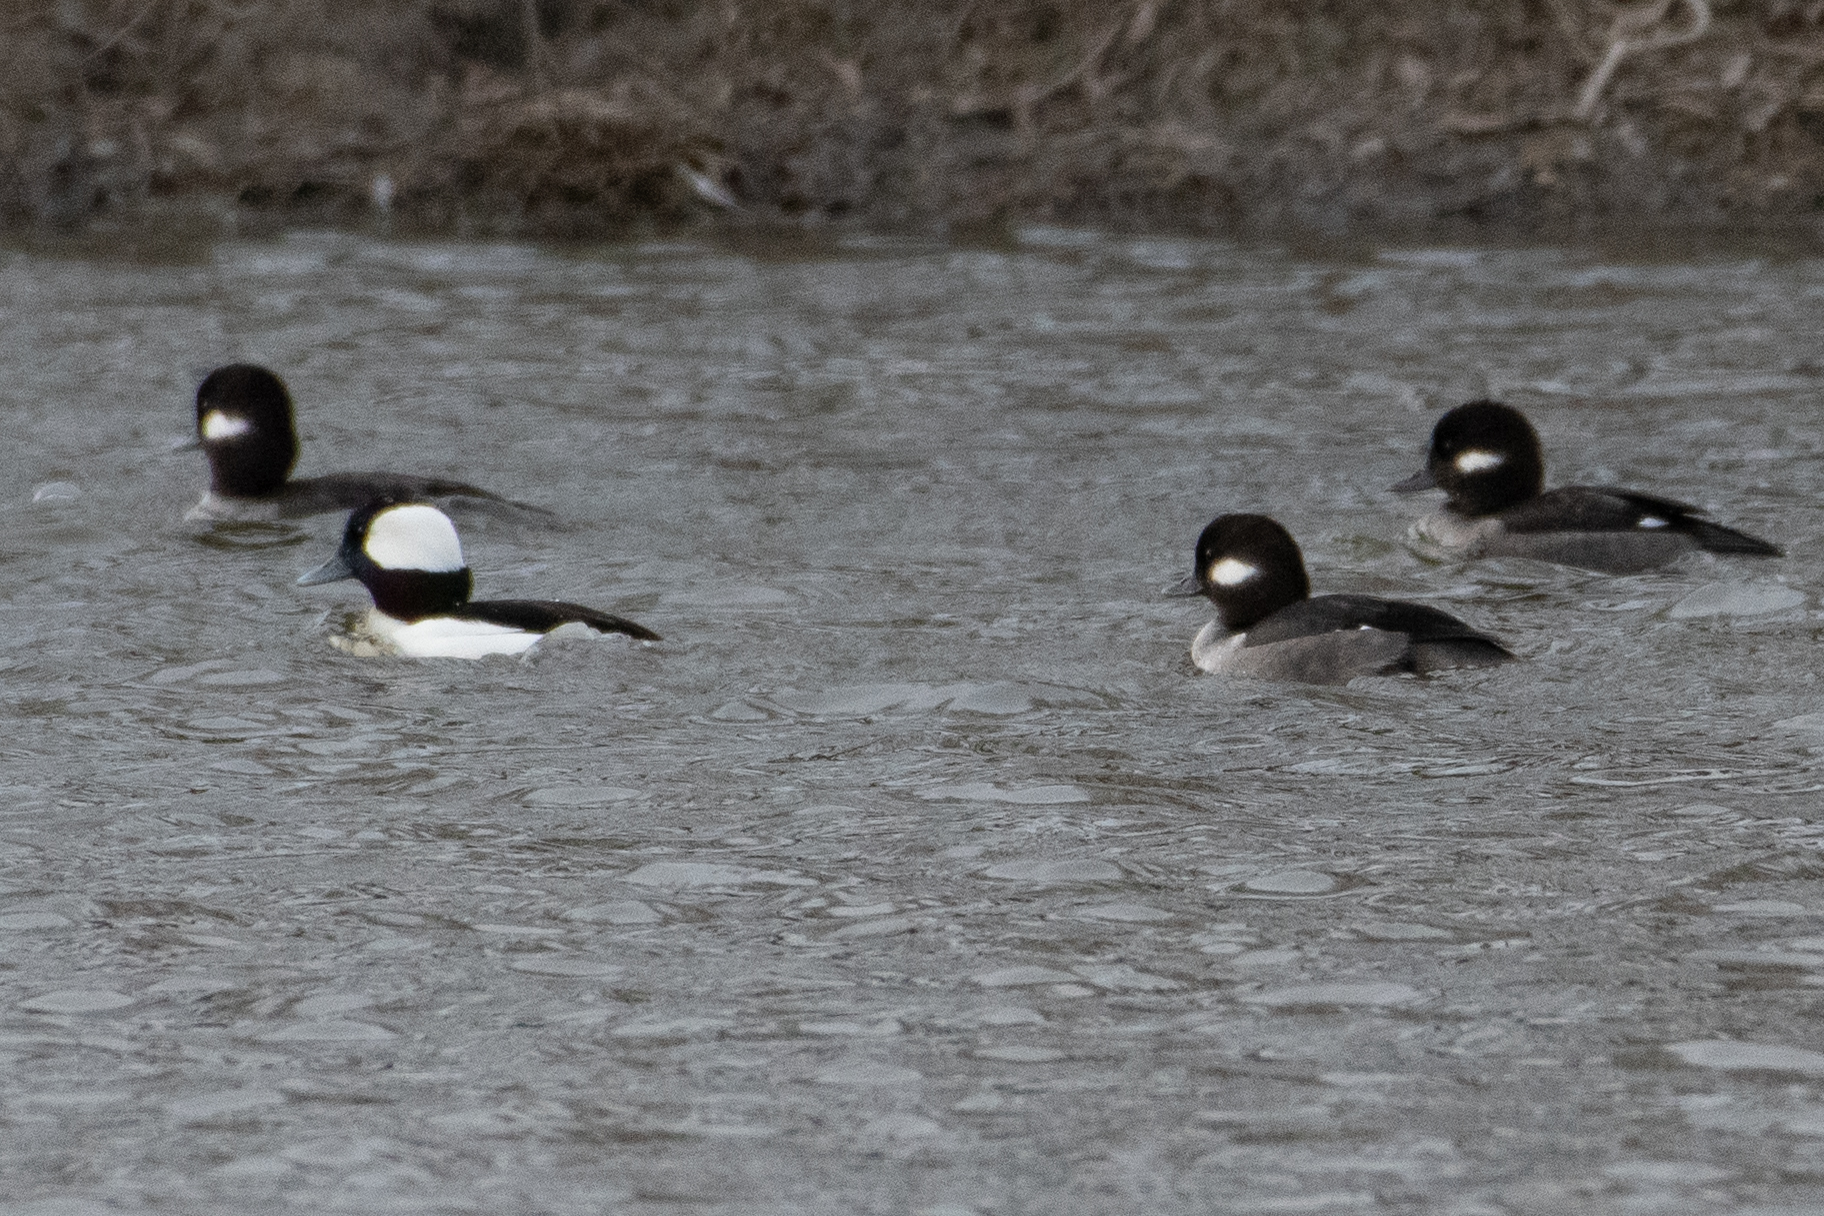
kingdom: Animalia
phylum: Chordata
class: Aves
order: Anseriformes
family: Anatidae
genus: Bucephala
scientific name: Bucephala albeola
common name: Bufflehead
